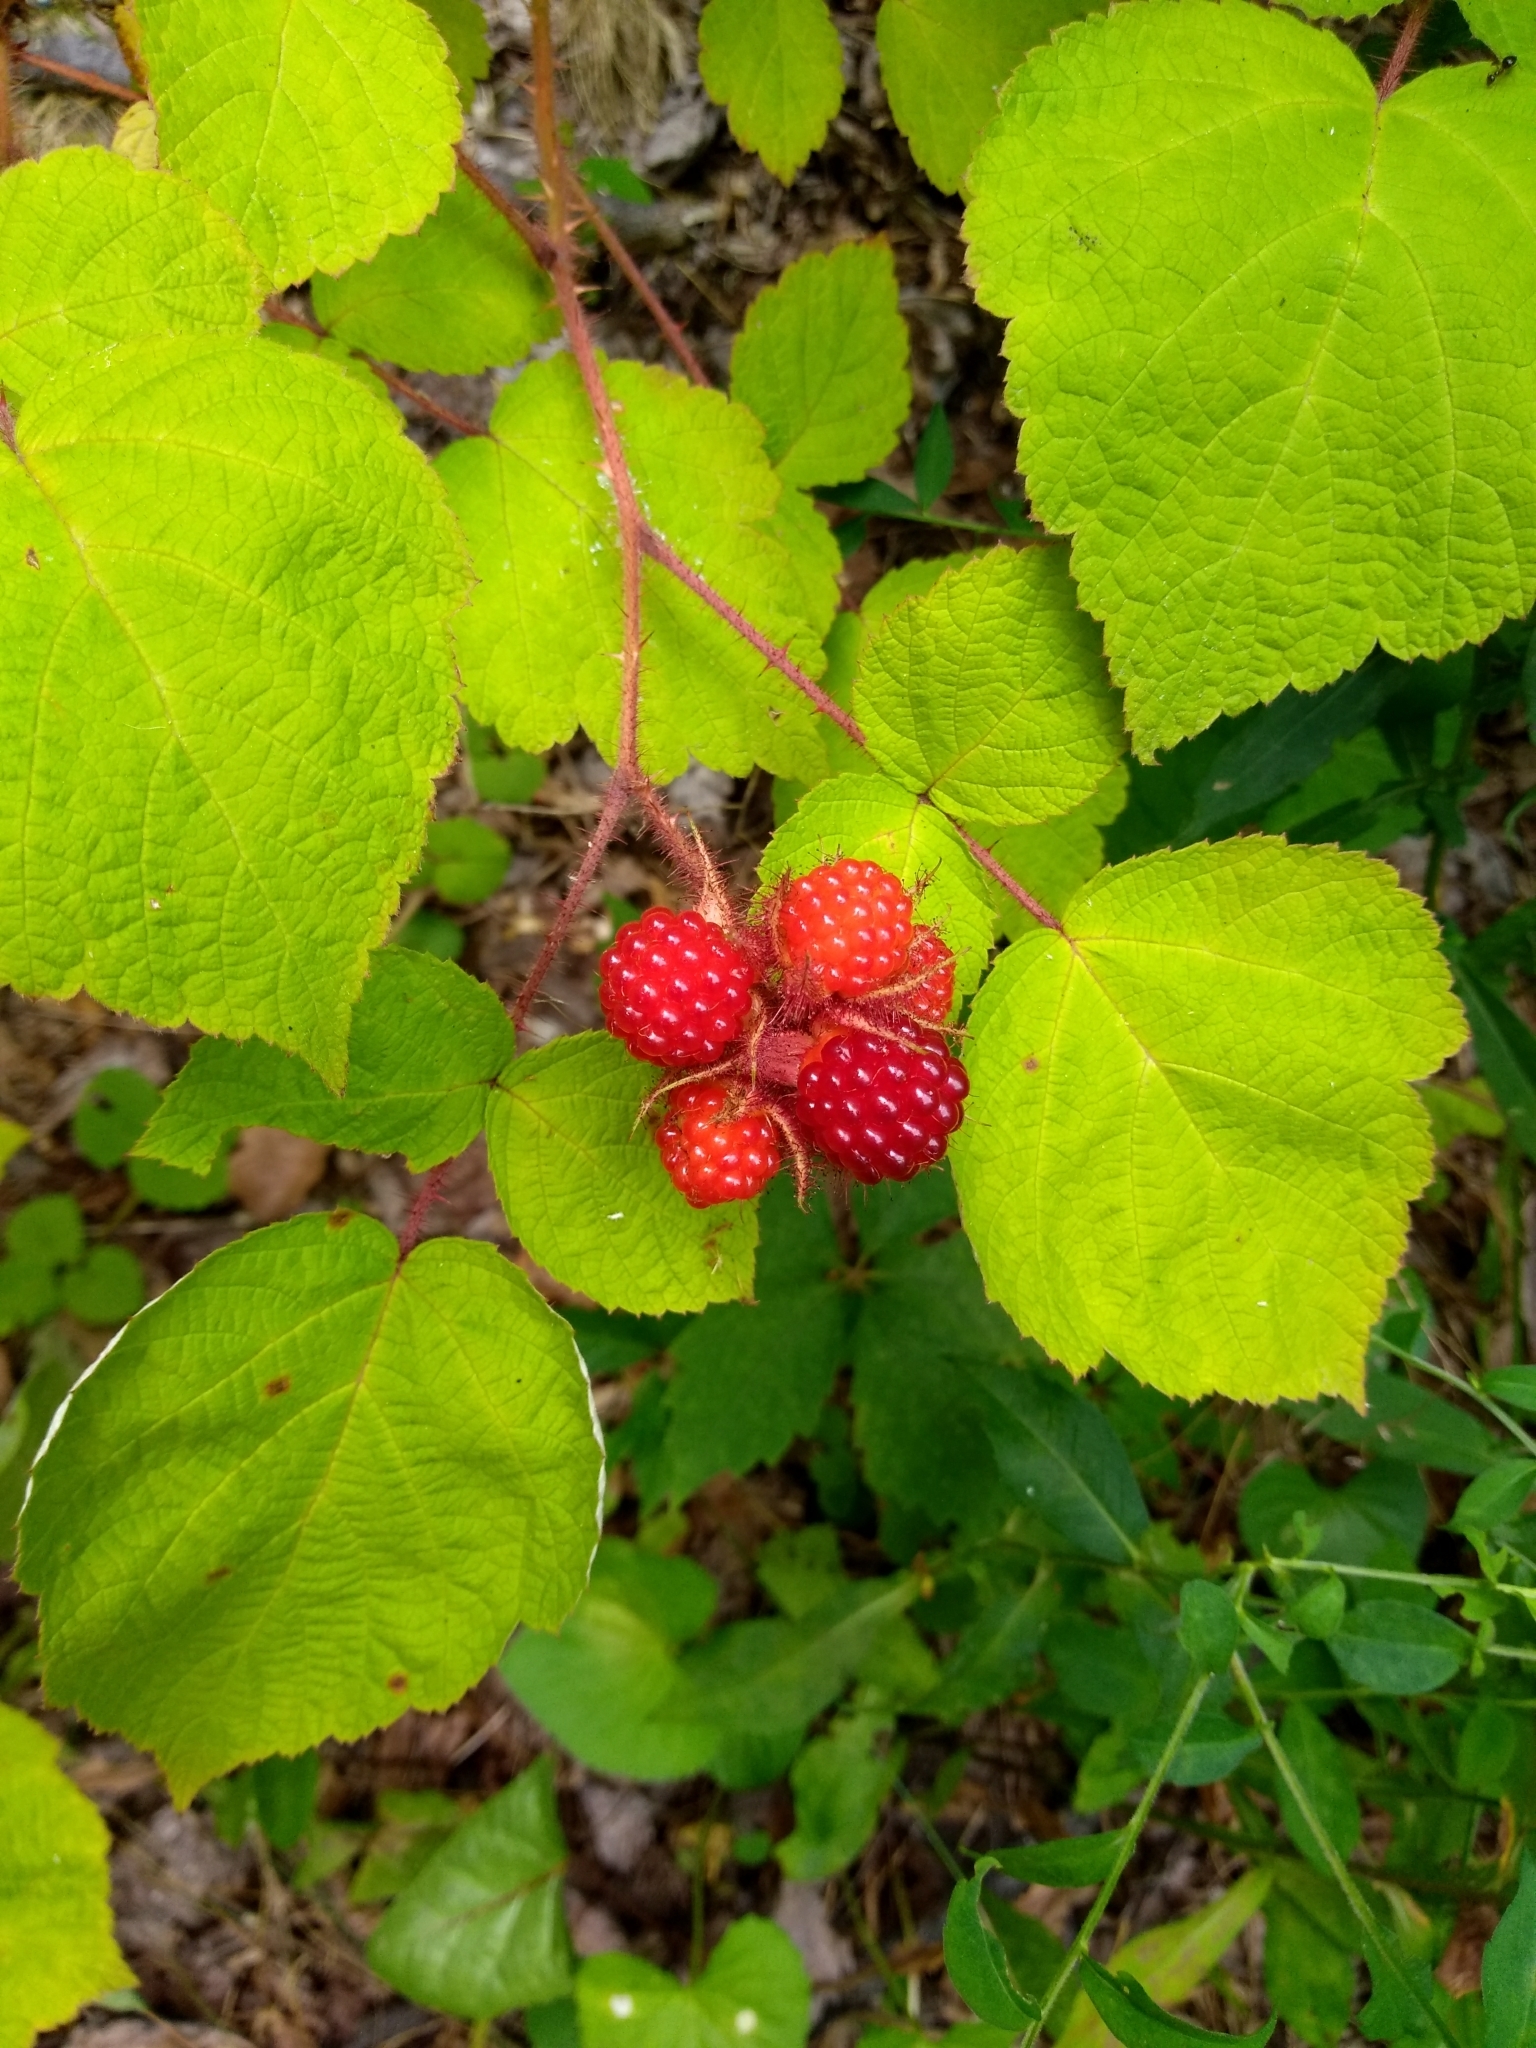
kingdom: Plantae
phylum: Tracheophyta
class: Magnoliopsida
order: Rosales
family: Rosaceae
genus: Rubus
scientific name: Rubus phoenicolasius
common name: Japanese wineberry
